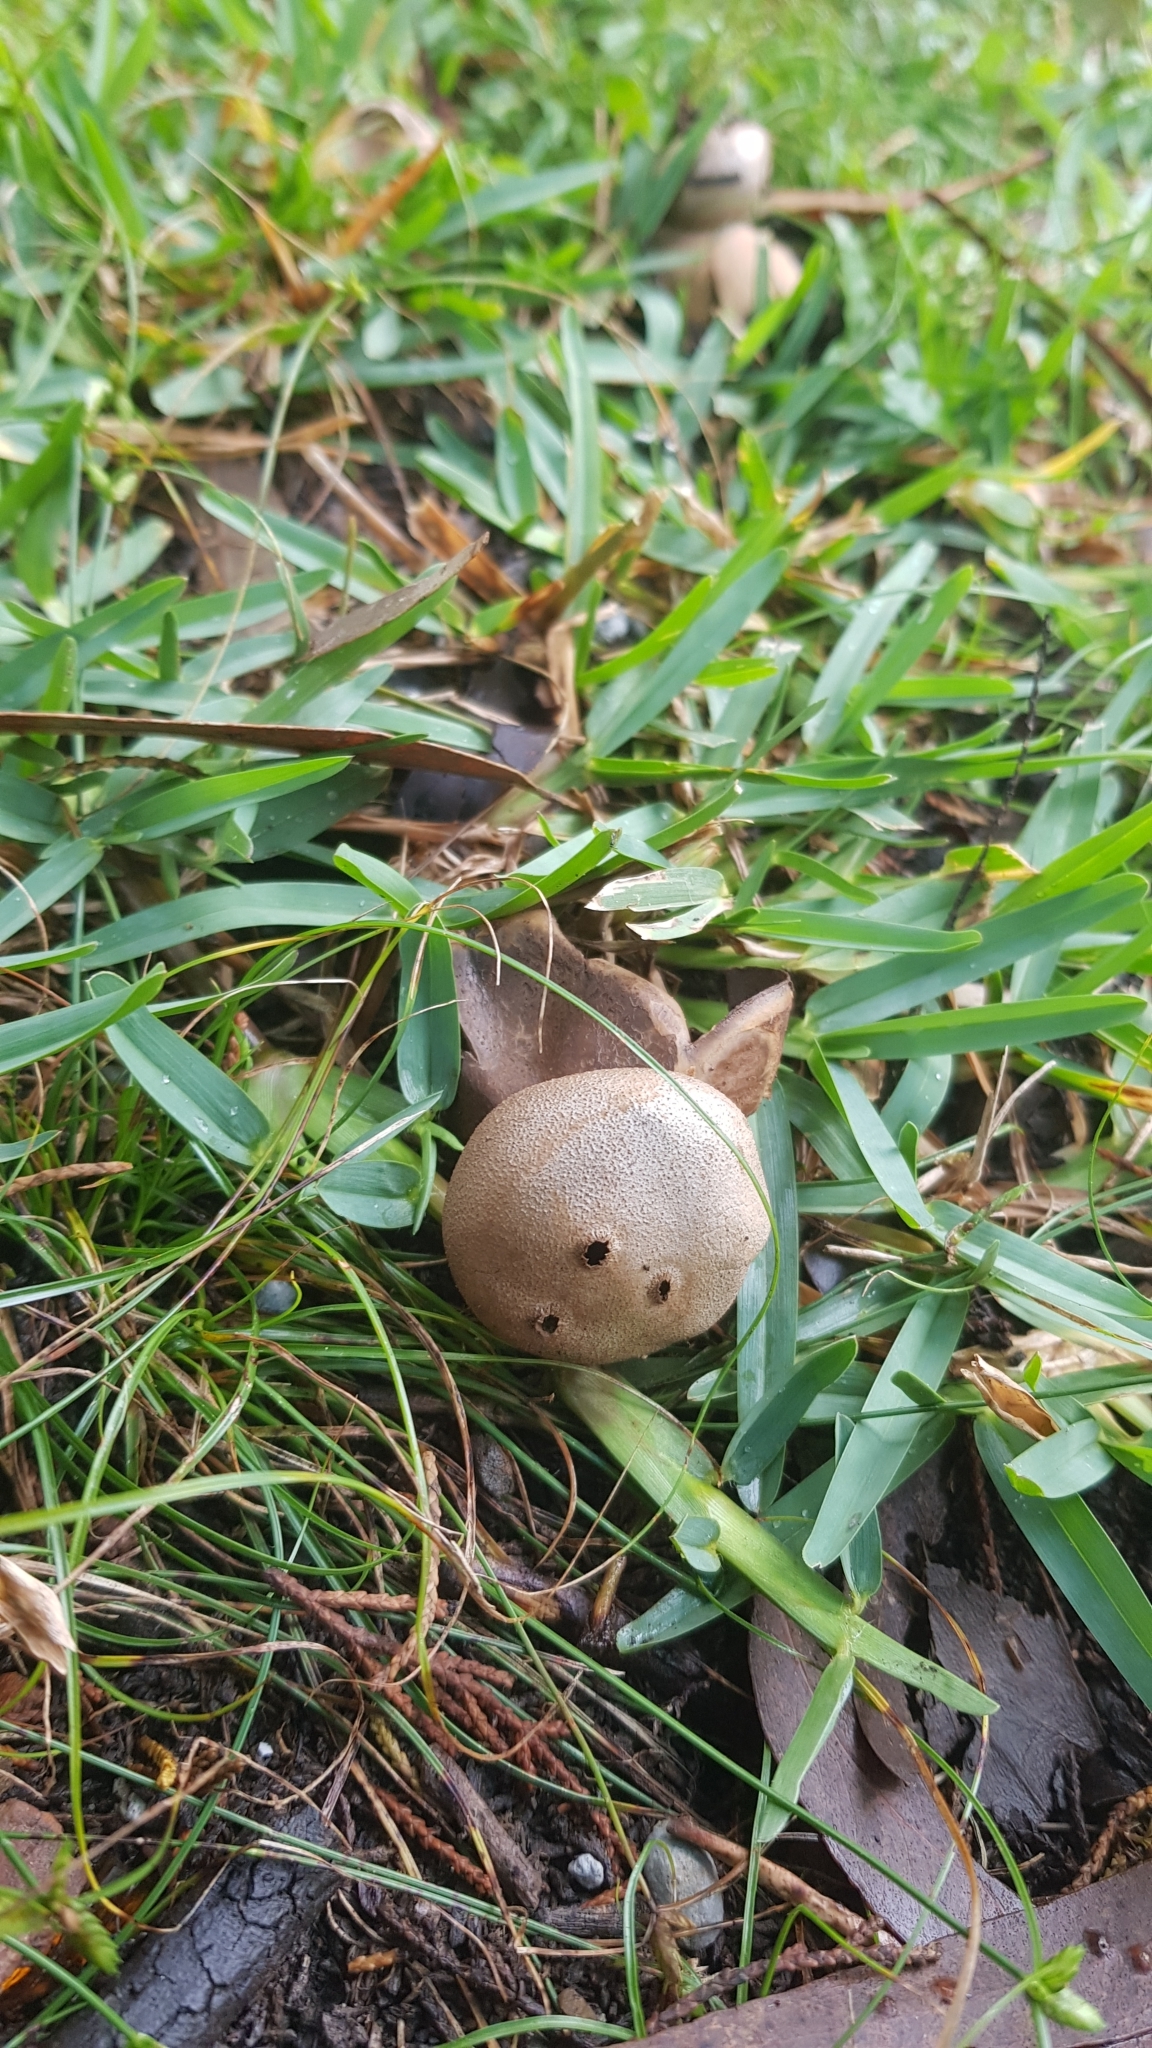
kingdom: Fungi
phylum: Basidiomycota
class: Agaricomycetes
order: Geastrales
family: Geastraceae
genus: Myriostoma
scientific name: Myriostoma australianum
